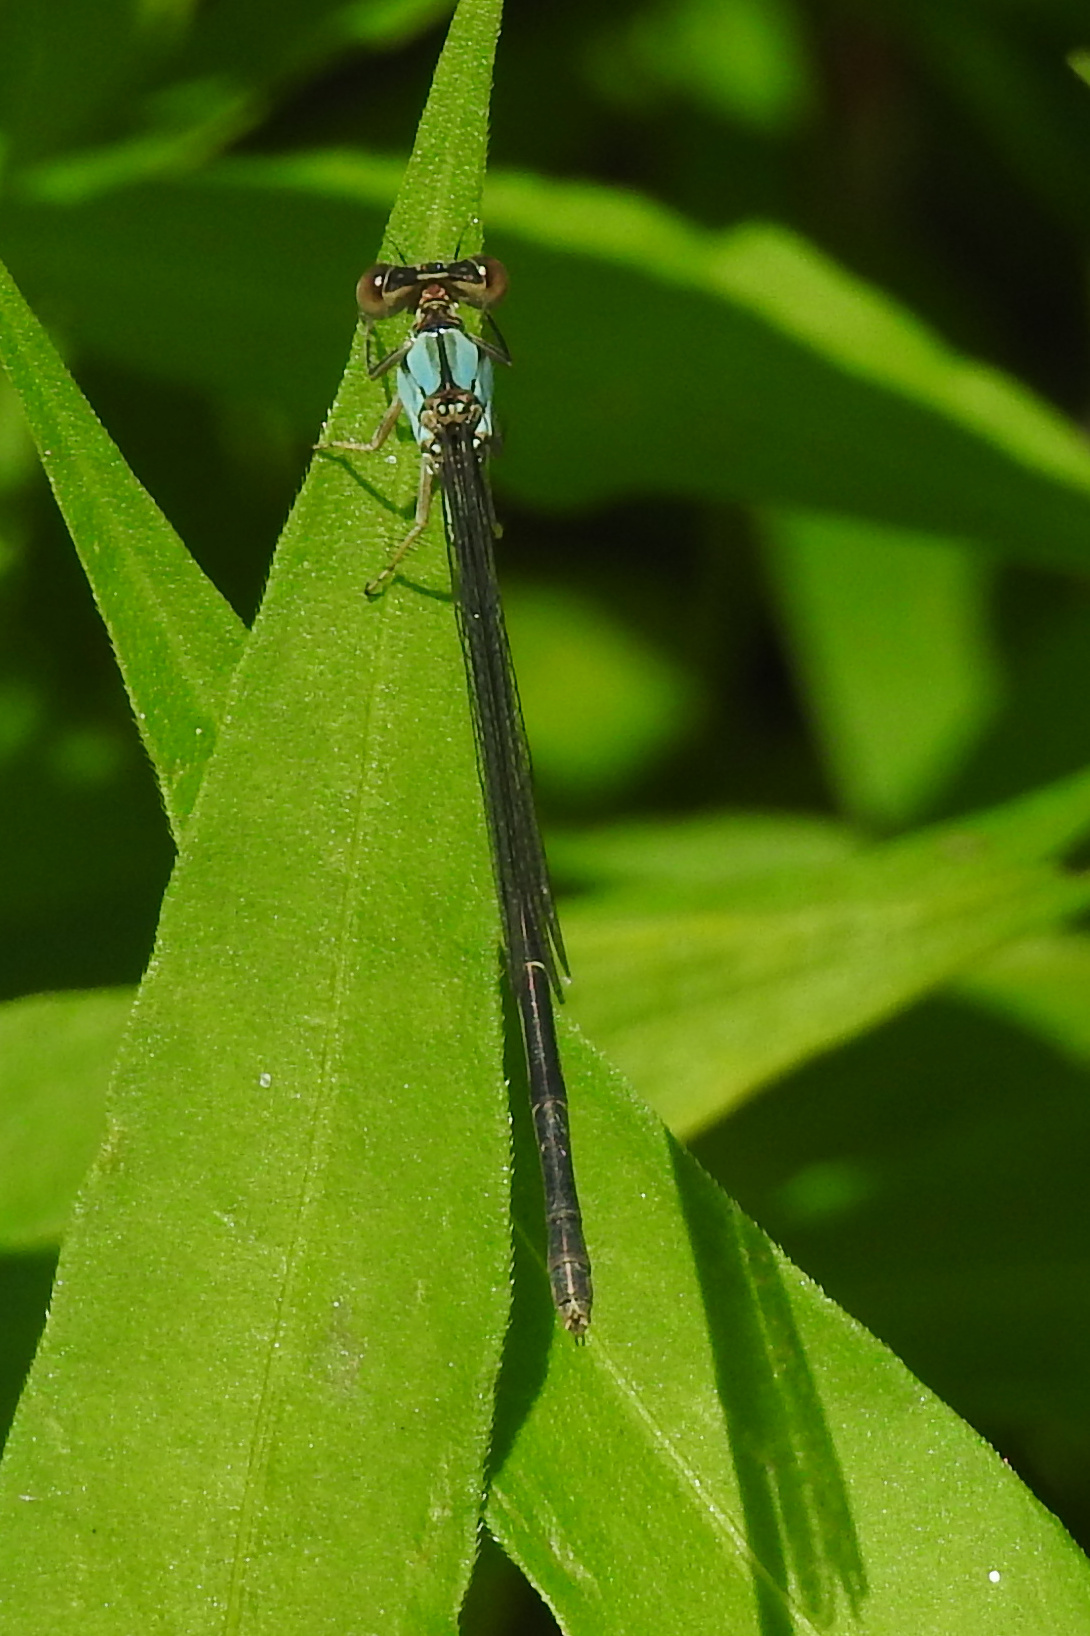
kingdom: Animalia
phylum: Arthropoda
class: Insecta
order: Odonata
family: Coenagrionidae
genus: Argia
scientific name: Argia apicalis
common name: Blue-fronted dancer
